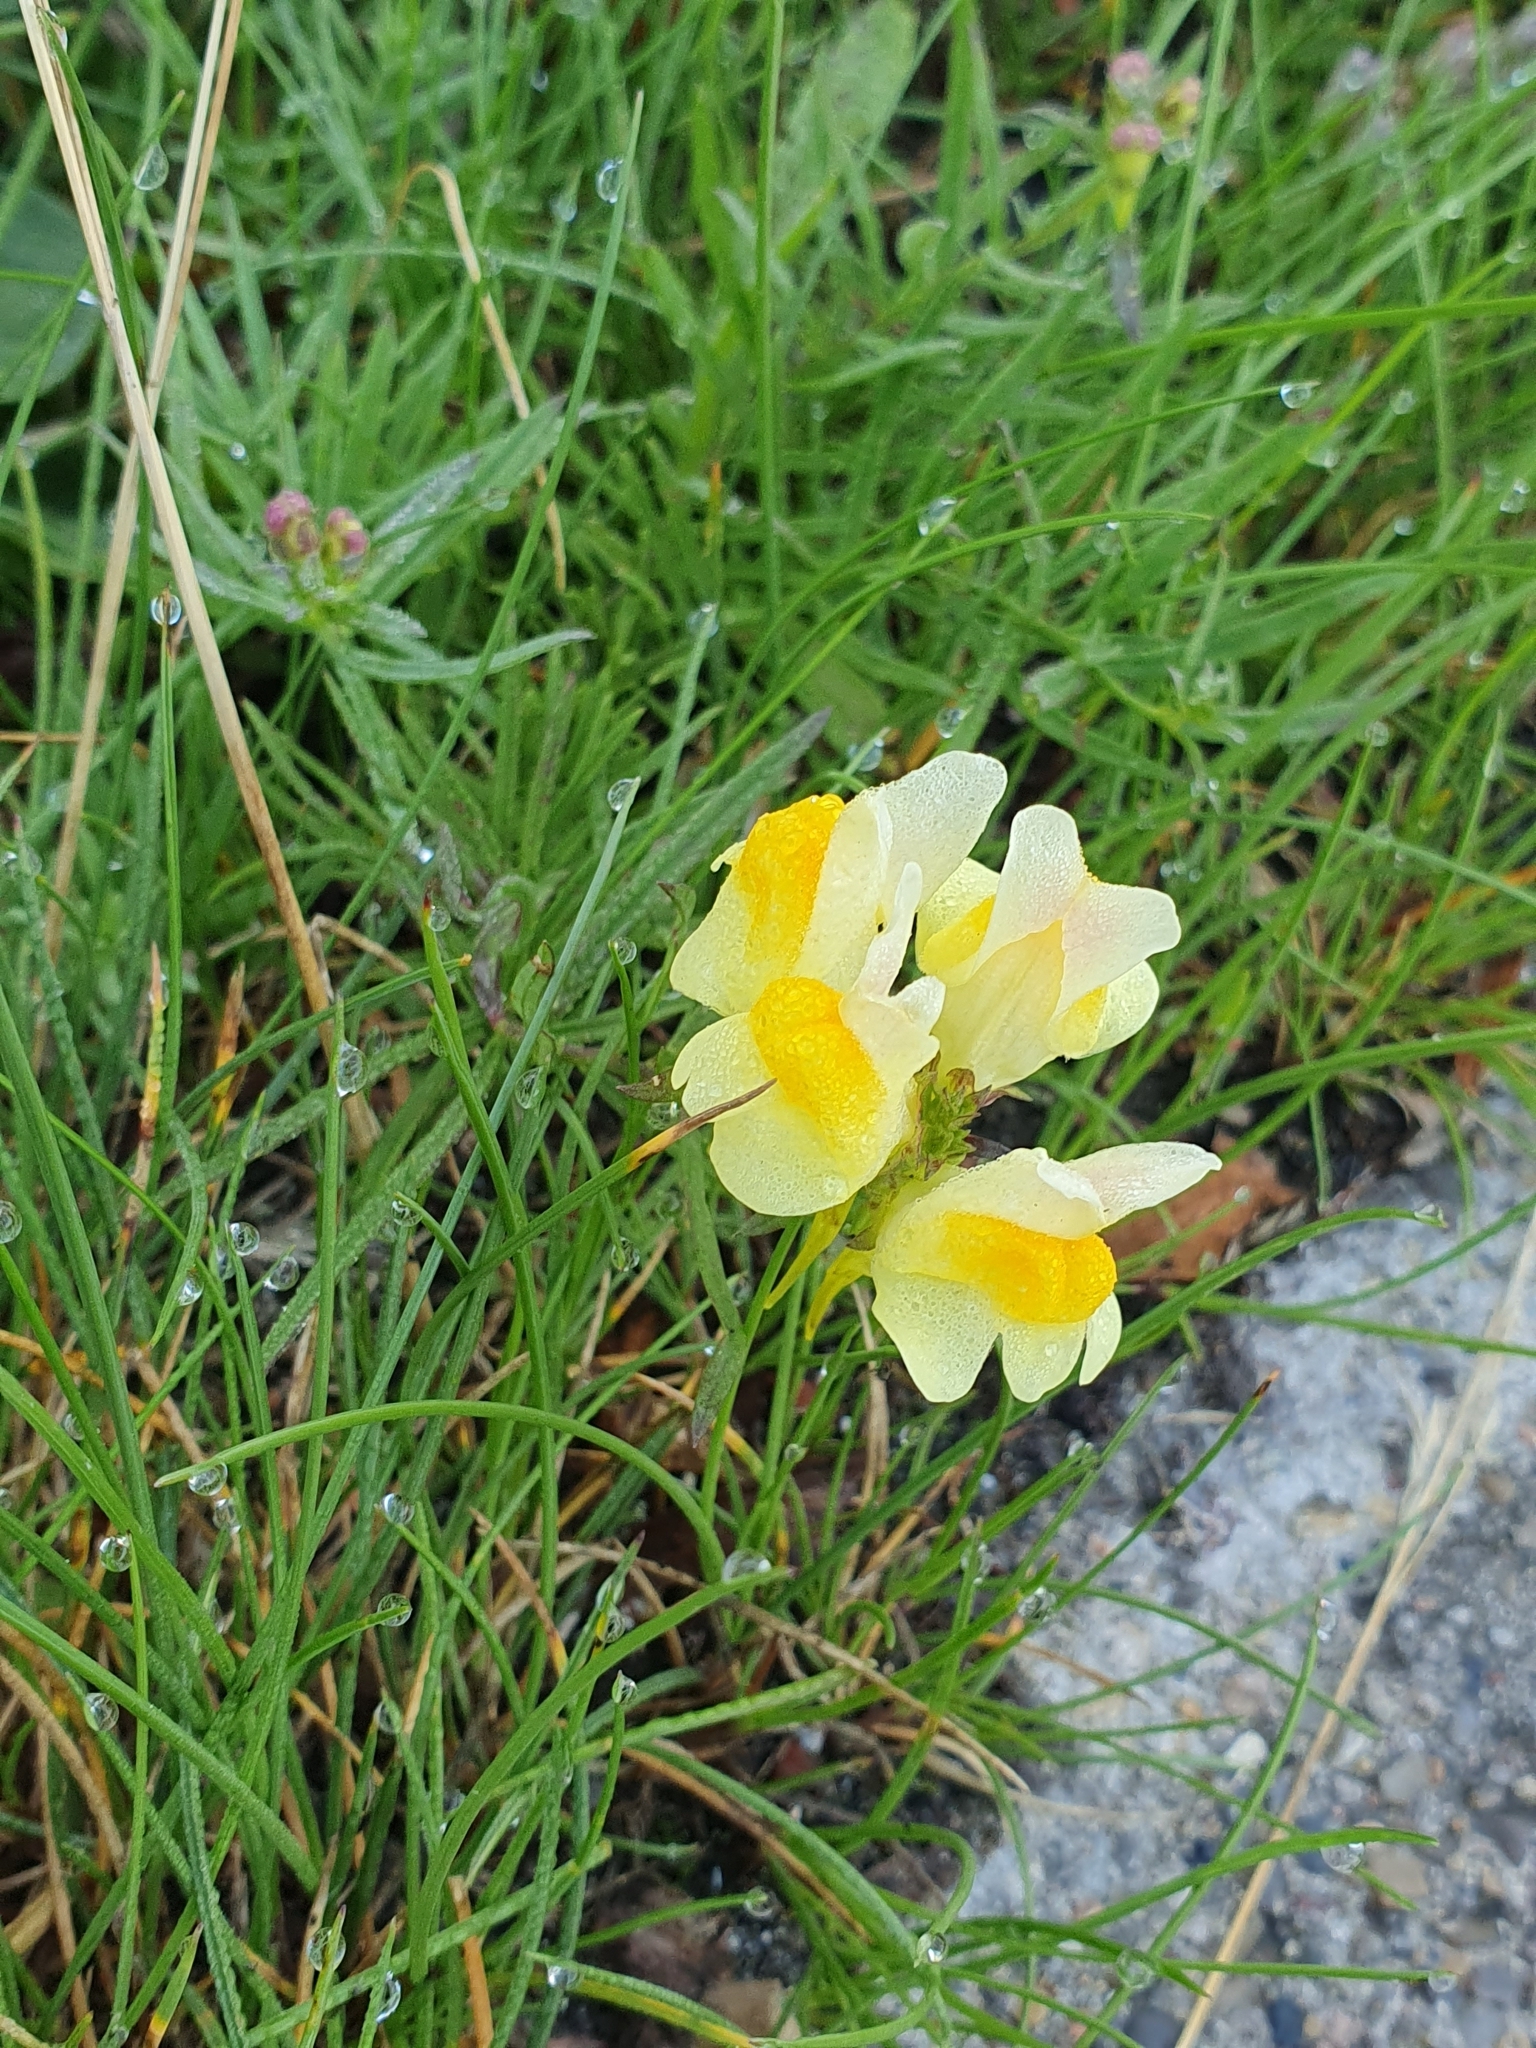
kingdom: Plantae
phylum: Tracheophyta
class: Magnoliopsida
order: Lamiales
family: Plantaginaceae
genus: Linaria
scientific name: Linaria vulgaris
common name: Butter and eggs
